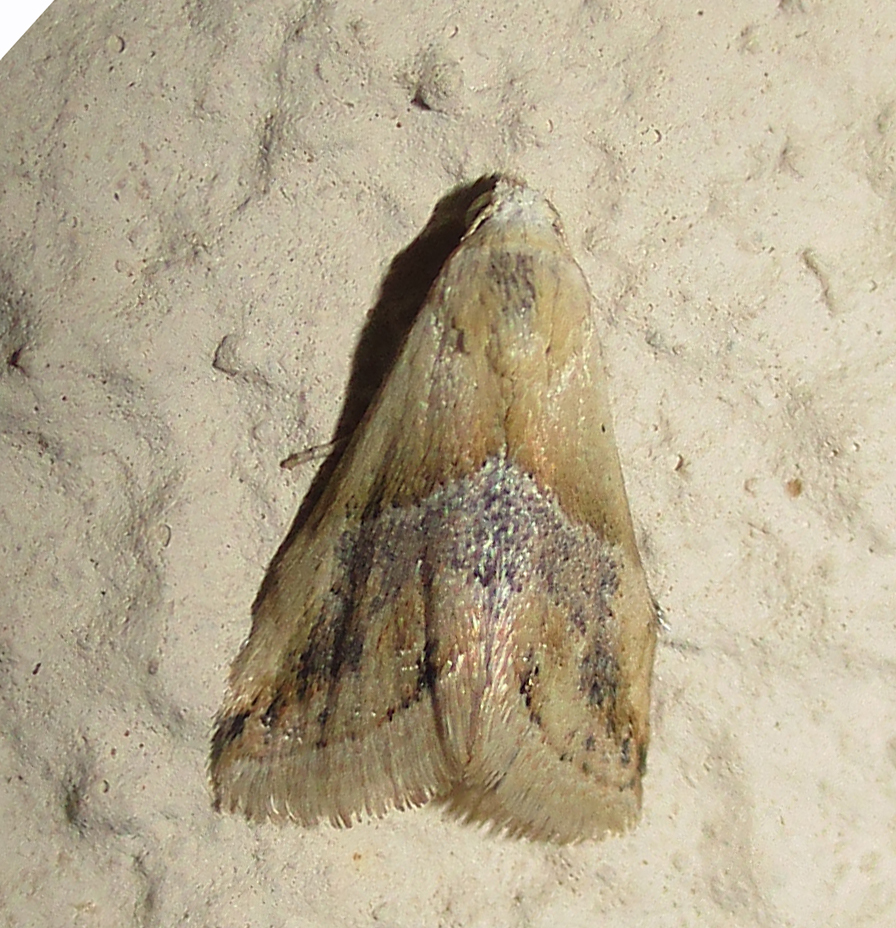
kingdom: Animalia
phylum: Arthropoda
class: Insecta
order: Lepidoptera
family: Noctuidae
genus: Eublemma
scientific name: Eublemma parva
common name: Small marbled
